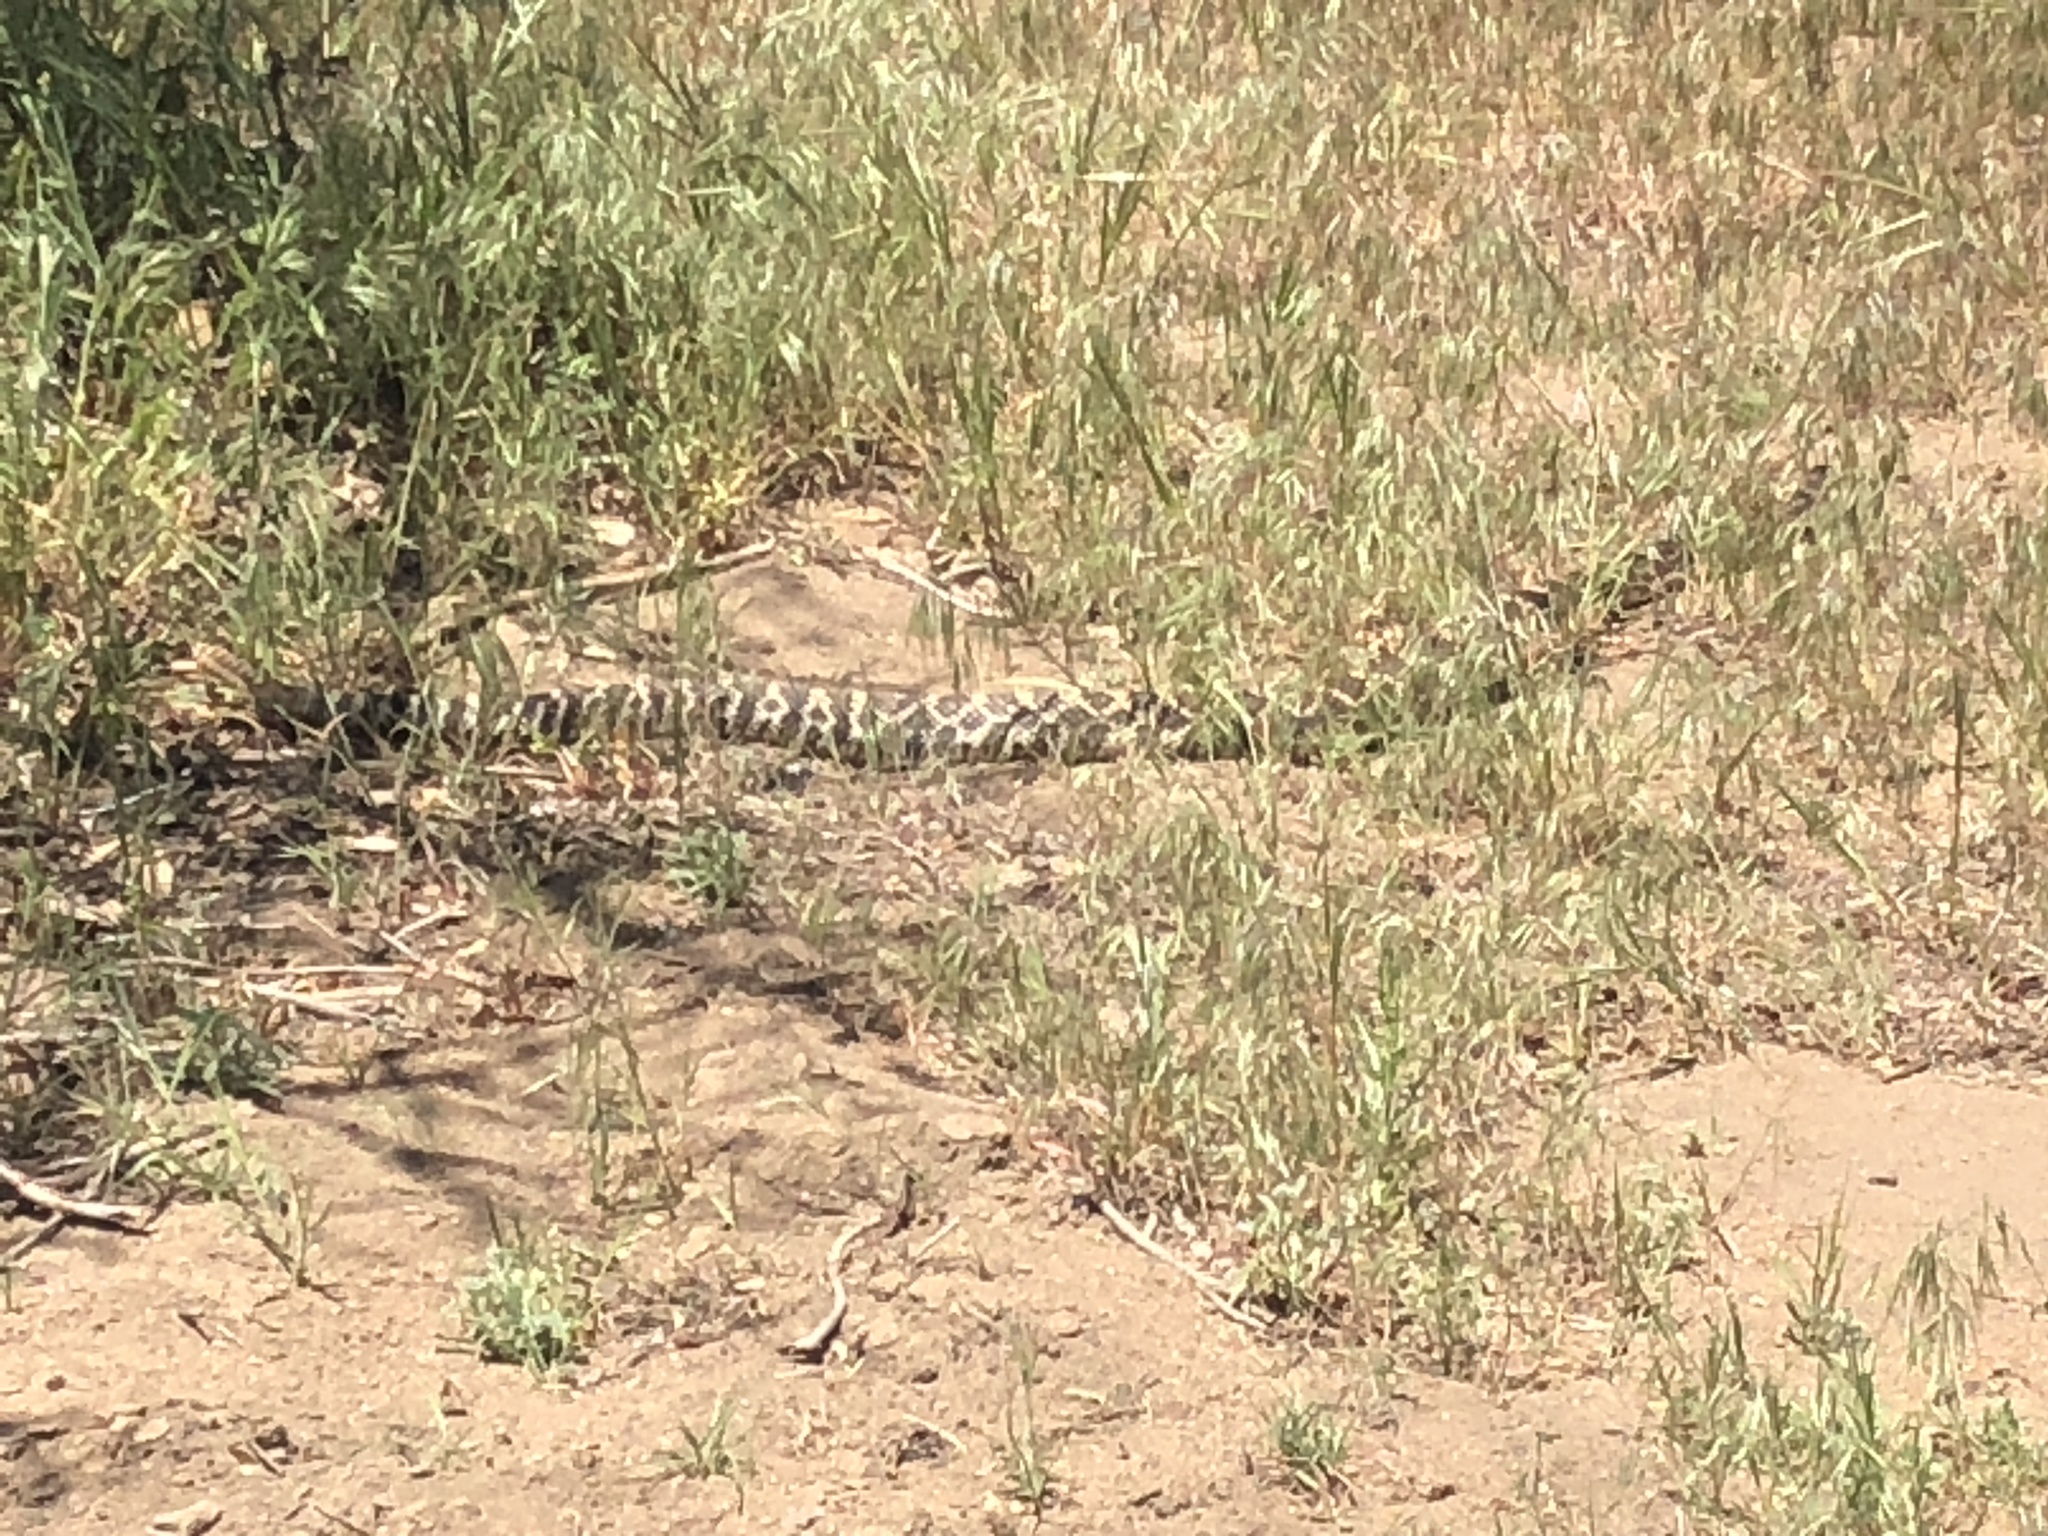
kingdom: Animalia
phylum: Chordata
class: Squamata
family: Viperidae
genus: Crotalus
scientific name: Crotalus oreganus
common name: Abyssus
